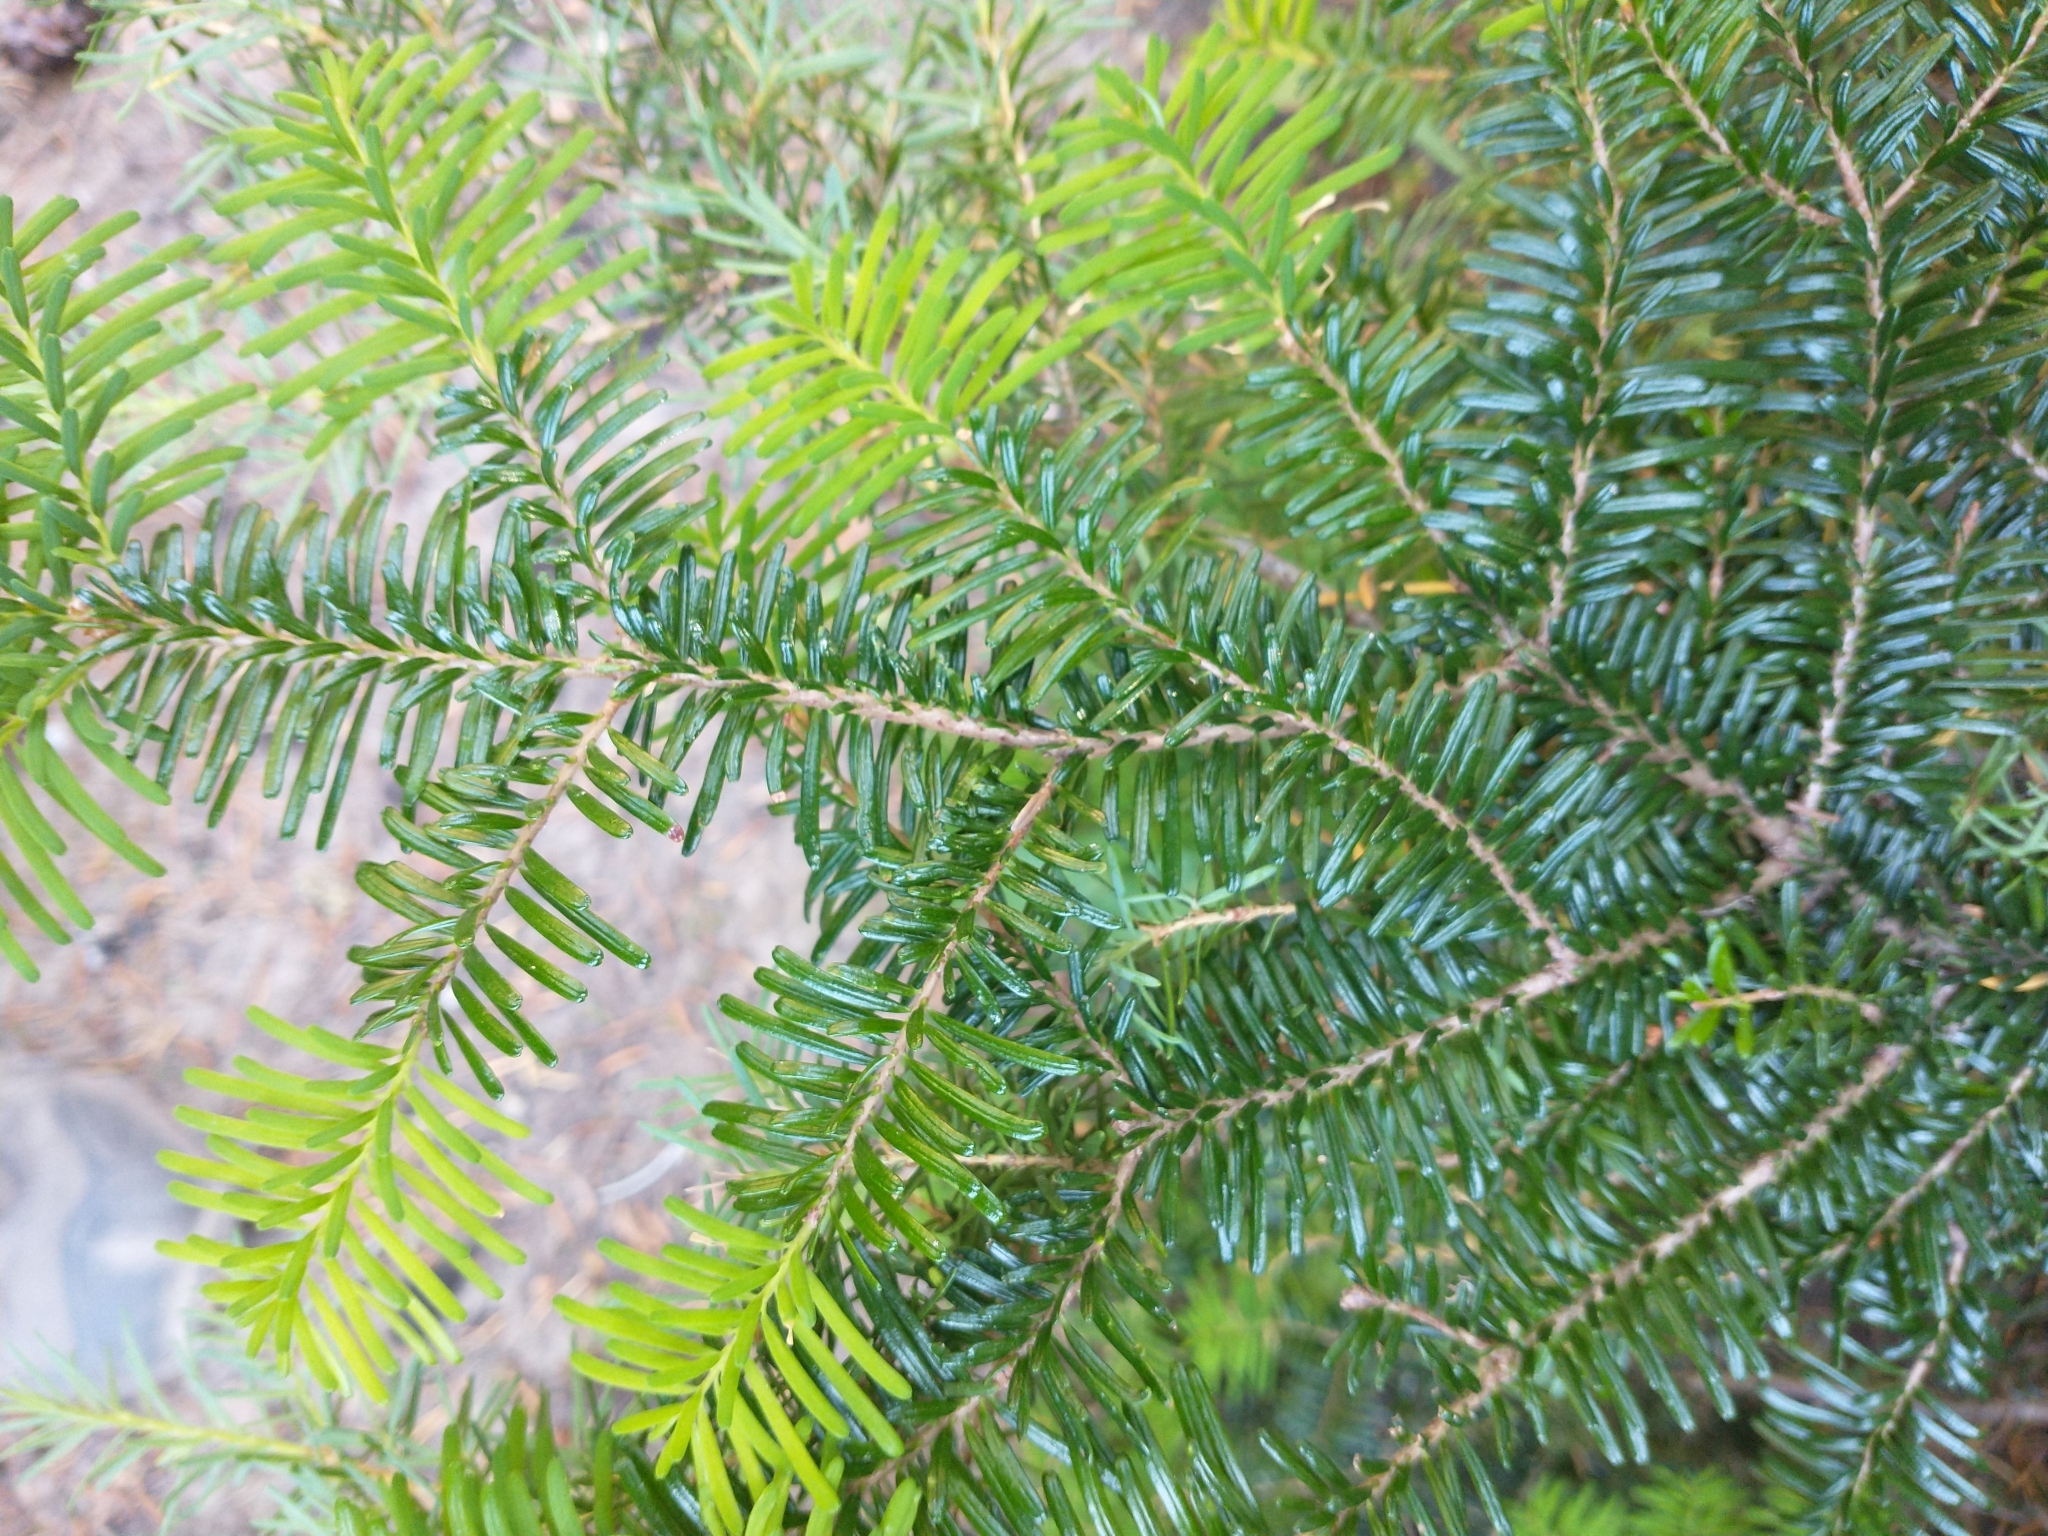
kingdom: Plantae
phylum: Tracheophyta
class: Pinopsida
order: Pinales
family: Pinaceae
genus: Abies
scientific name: Abies amabilis
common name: Pacific silver fir
